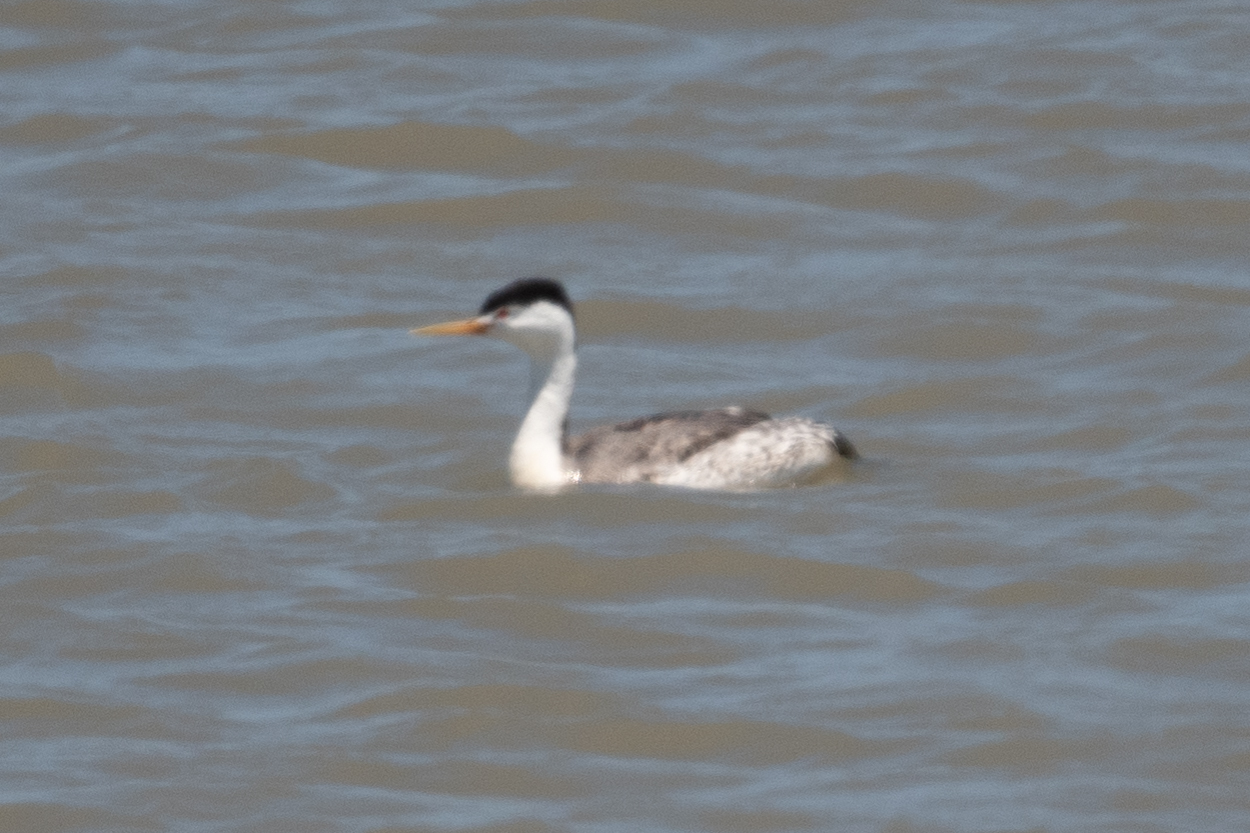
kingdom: Animalia
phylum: Chordata
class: Aves
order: Podicipediformes
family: Podicipedidae
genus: Aechmophorus
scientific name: Aechmophorus clarkii
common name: Clark's grebe
